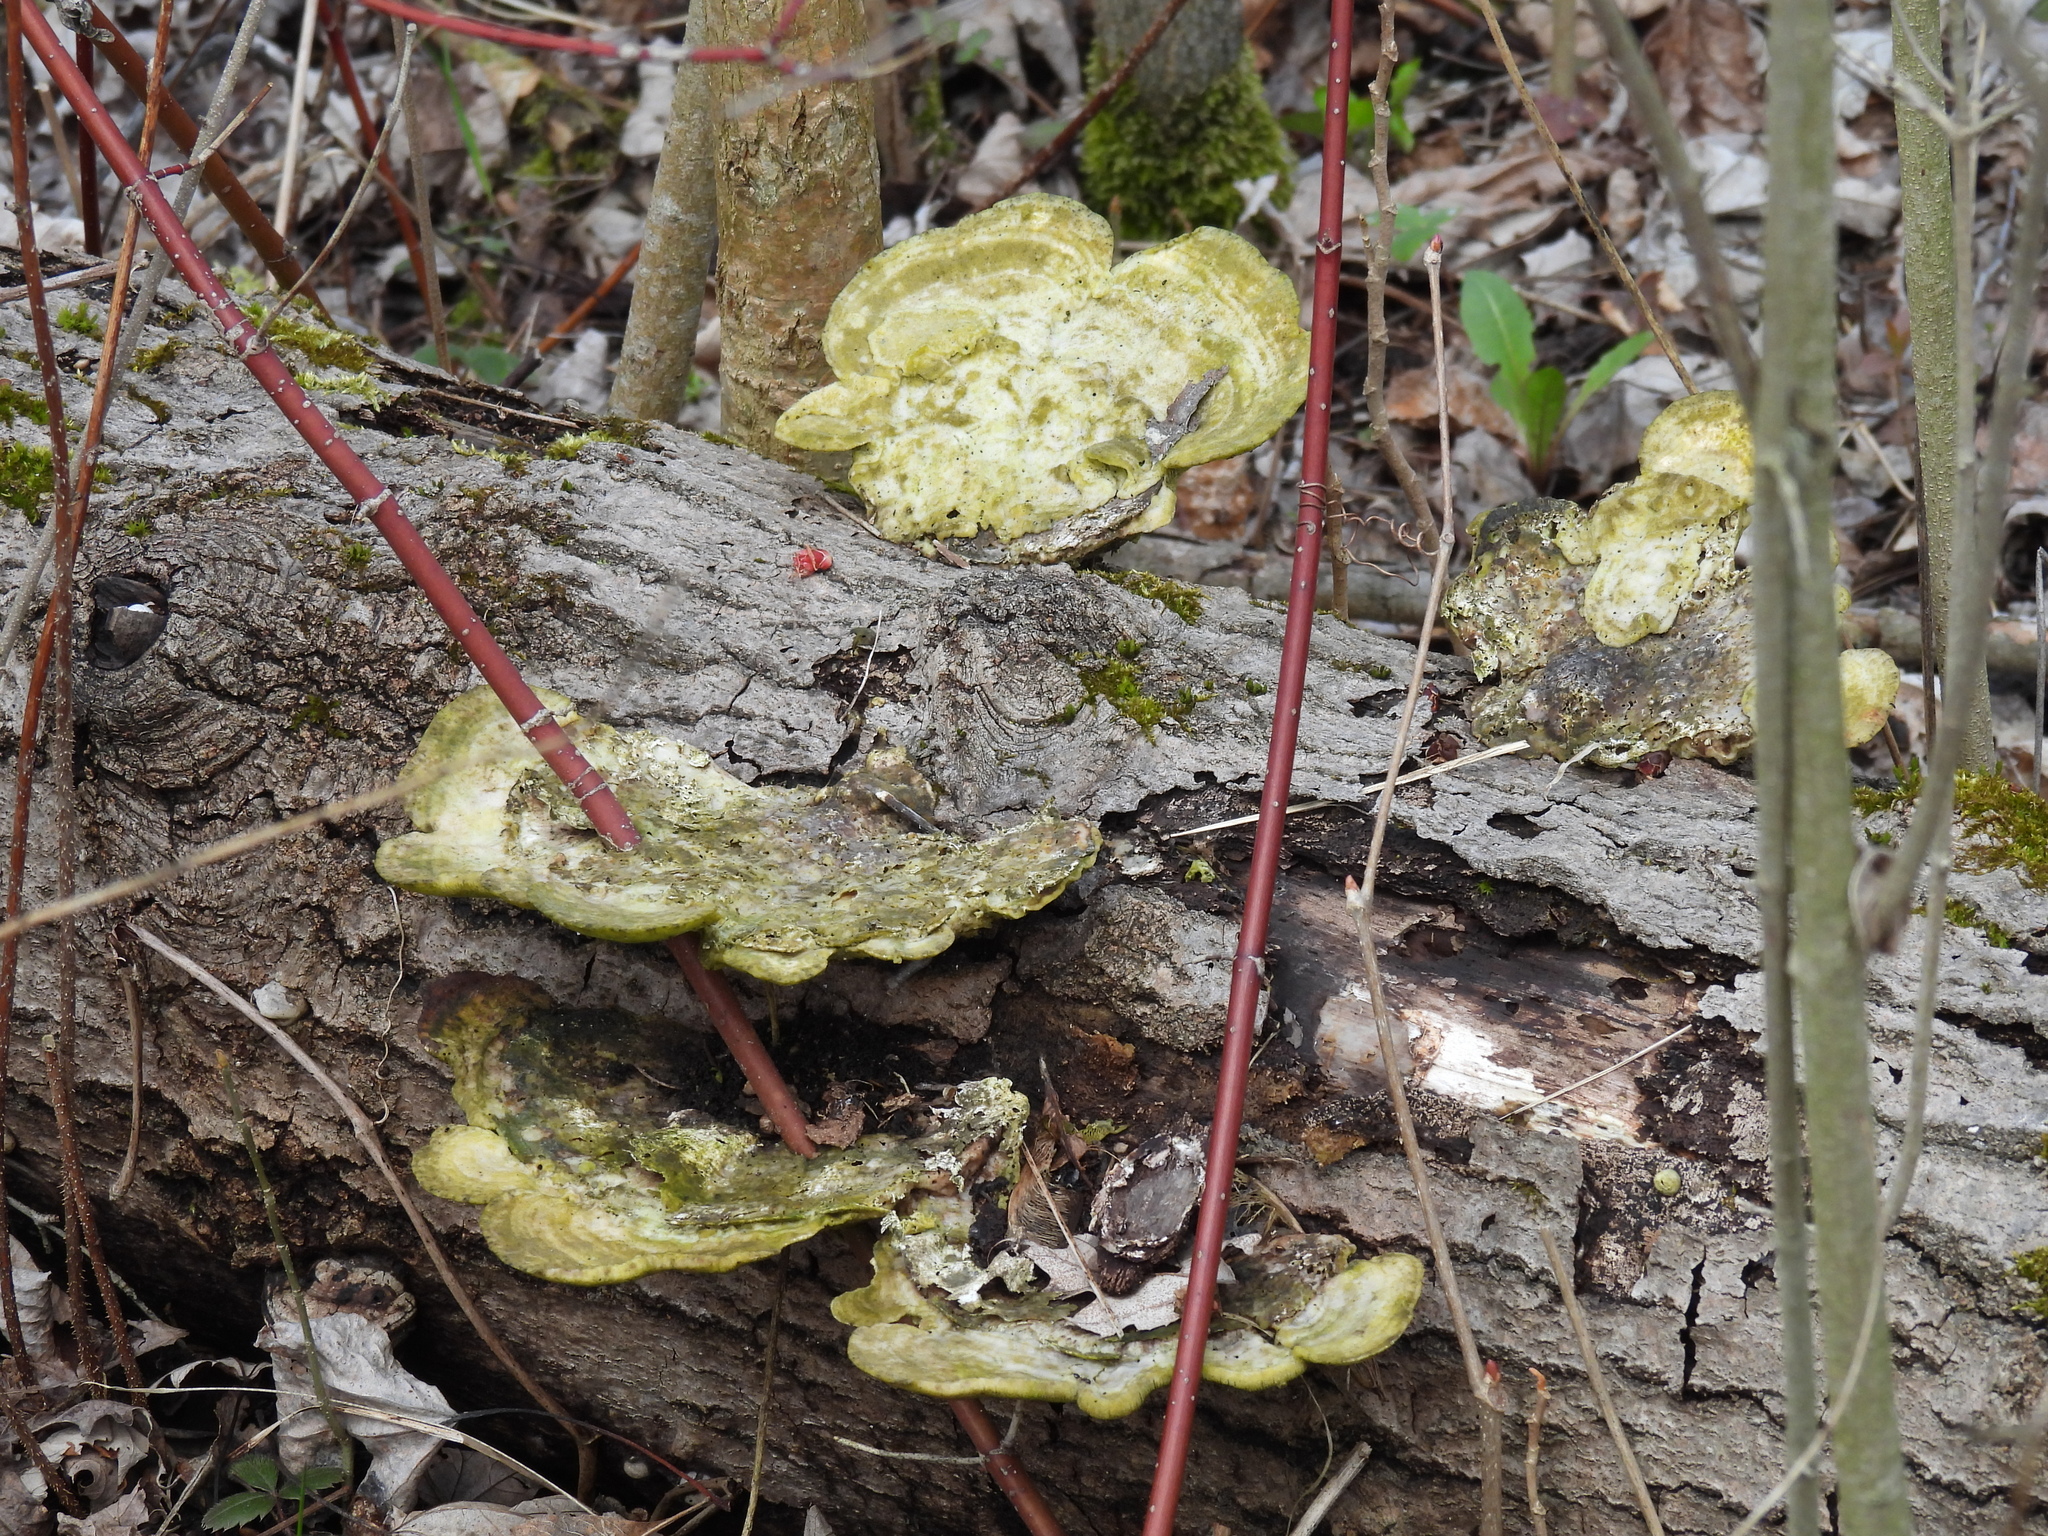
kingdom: Fungi
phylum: Basidiomycota
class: Agaricomycetes
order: Polyporales
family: Polyporaceae
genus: Trametes
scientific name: Trametes versicolor
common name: Turkeytail
